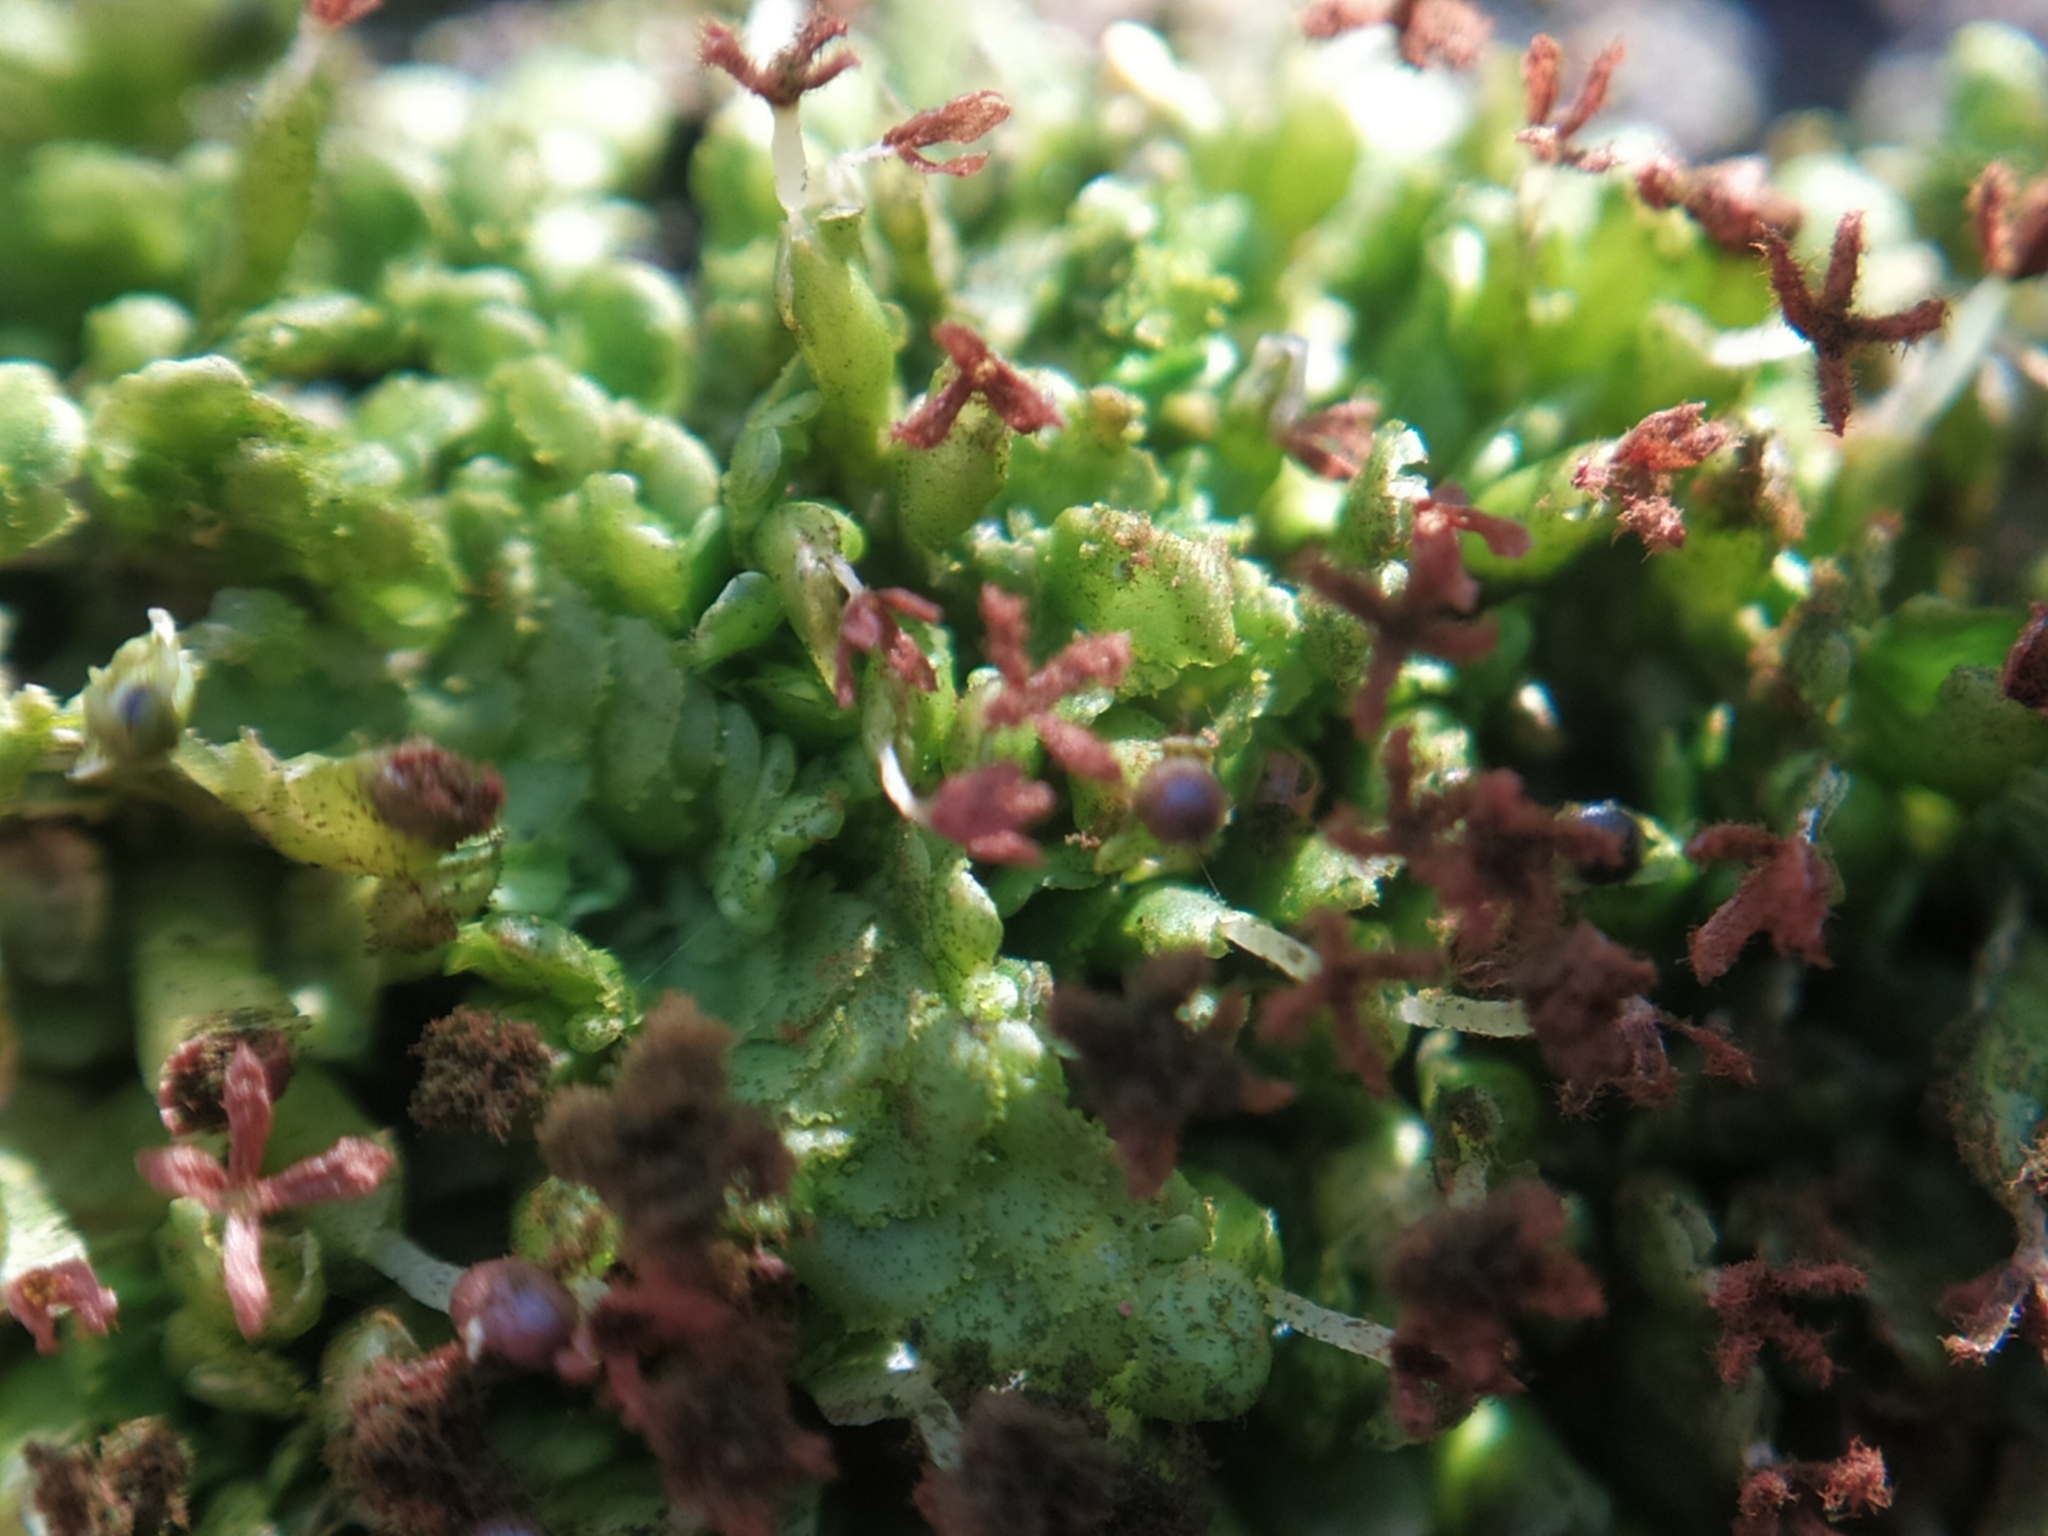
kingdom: Plantae
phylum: Marchantiophyta
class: Jungermanniopsida
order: Porellales
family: Radulaceae
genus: Radula
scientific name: Radula complanata
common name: Flat-leaved scalewort
